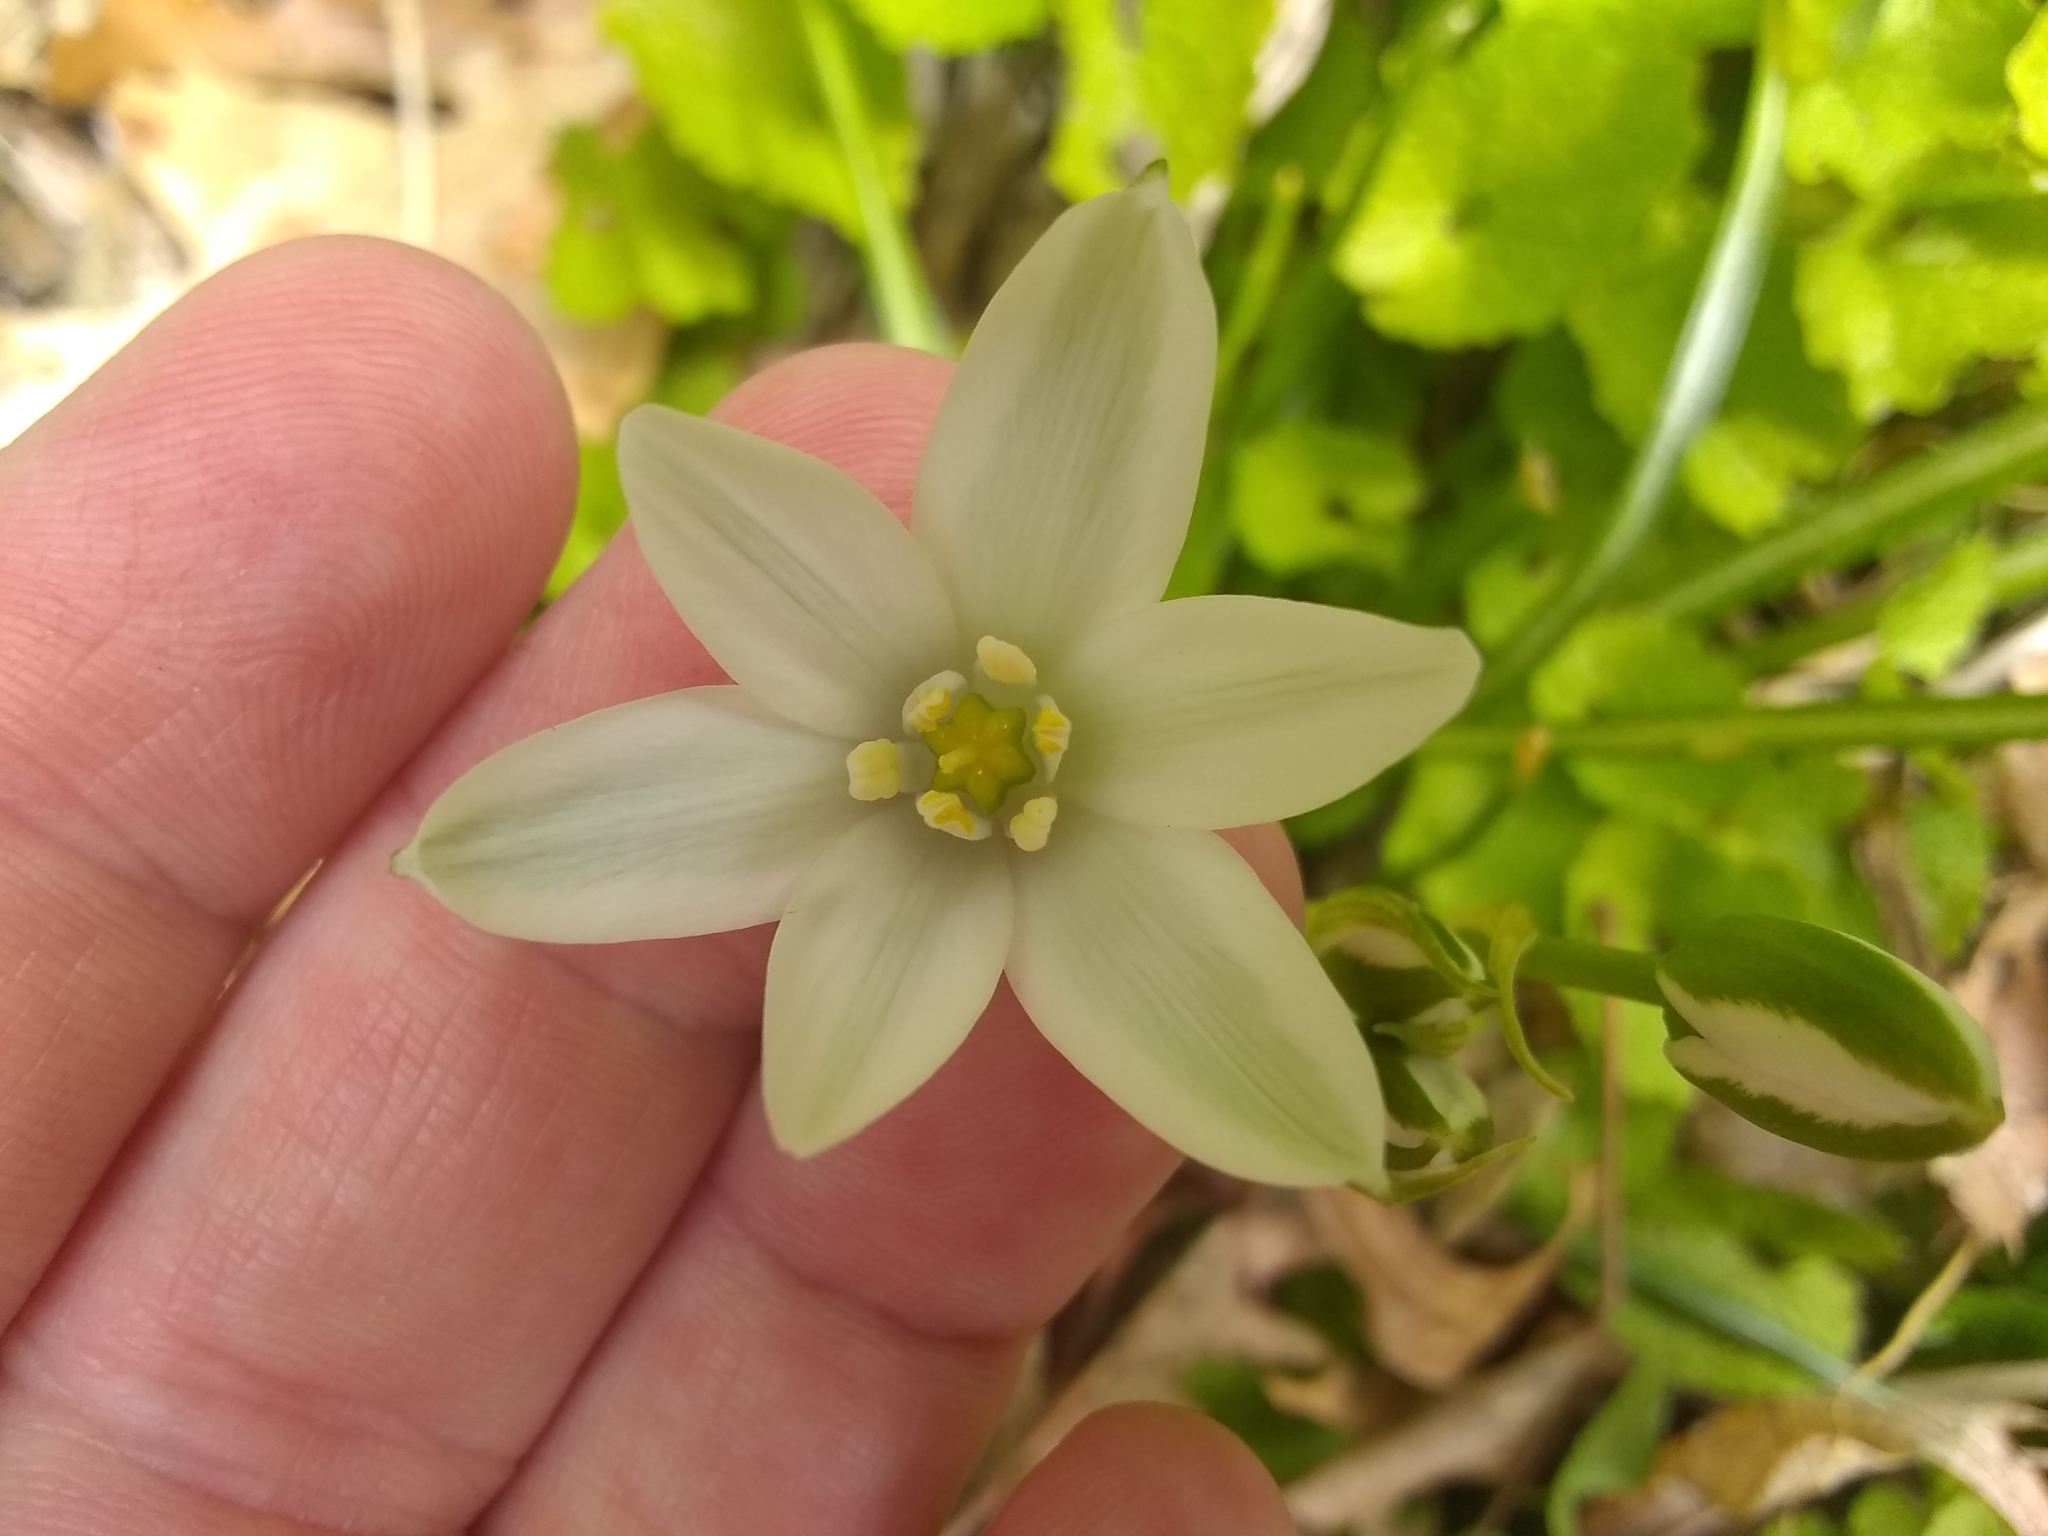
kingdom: Plantae
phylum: Tracheophyta
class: Liliopsida
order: Asparagales
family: Asparagaceae
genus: Ornithogalum
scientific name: Ornithogalum umbellatum
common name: Garden star-of-bethlehem
